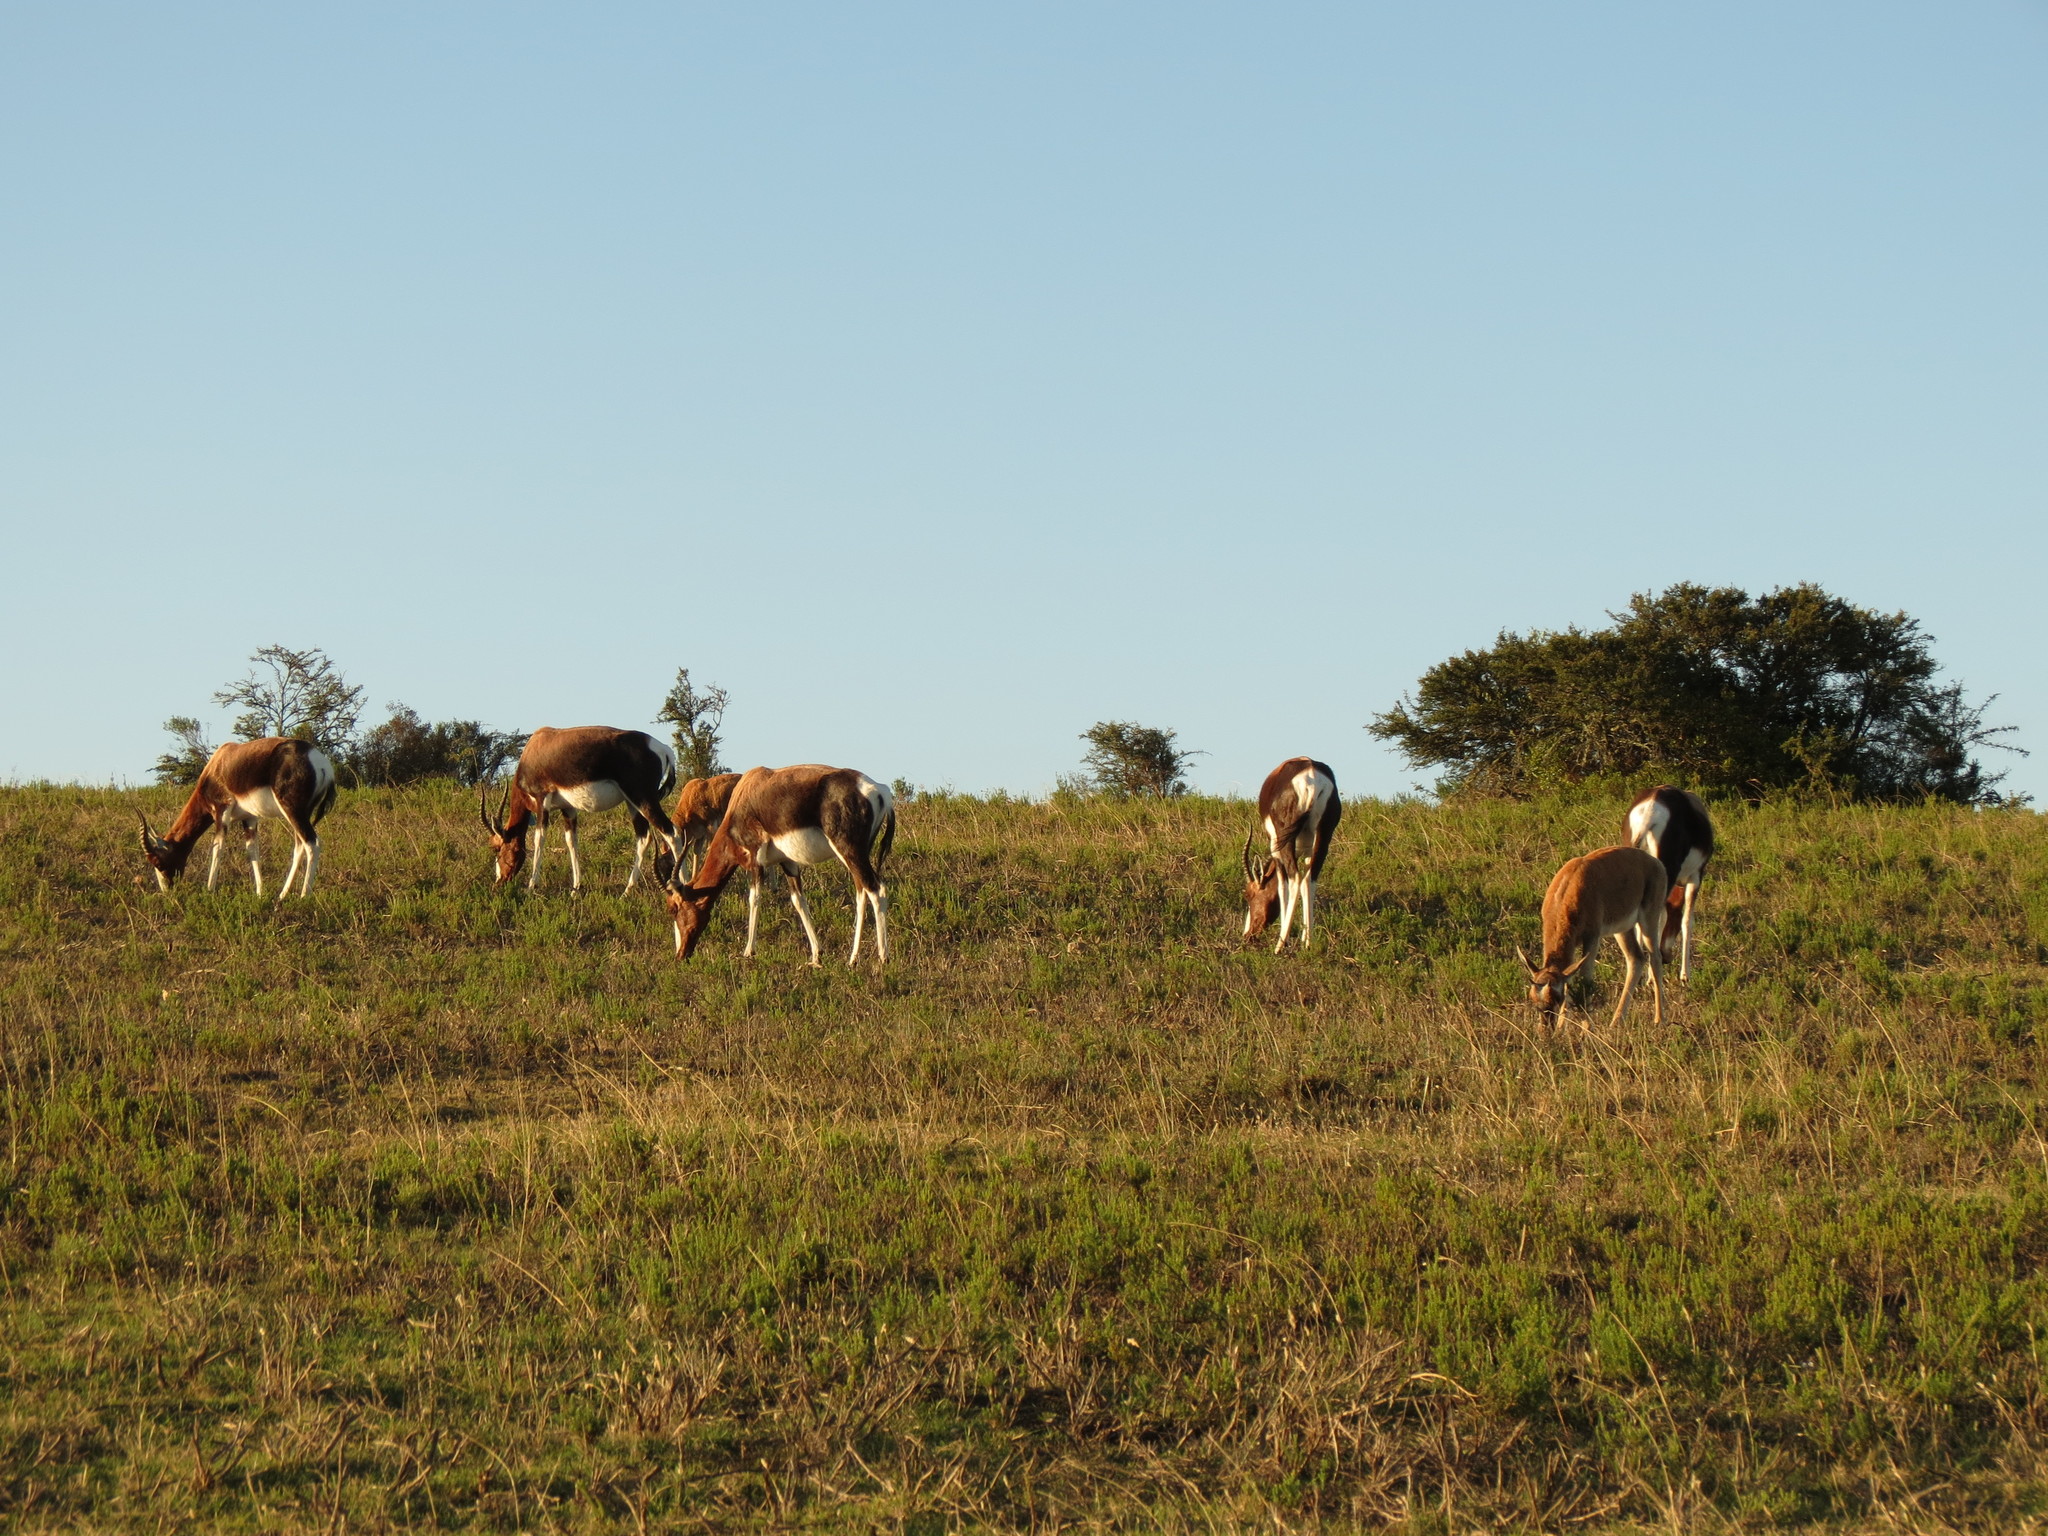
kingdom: Animalia
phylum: Chordata
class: Mammalia
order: Artiodactyla
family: Bovidae
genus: Damaliscus
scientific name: Damaliscus pygargus
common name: Bontebok
